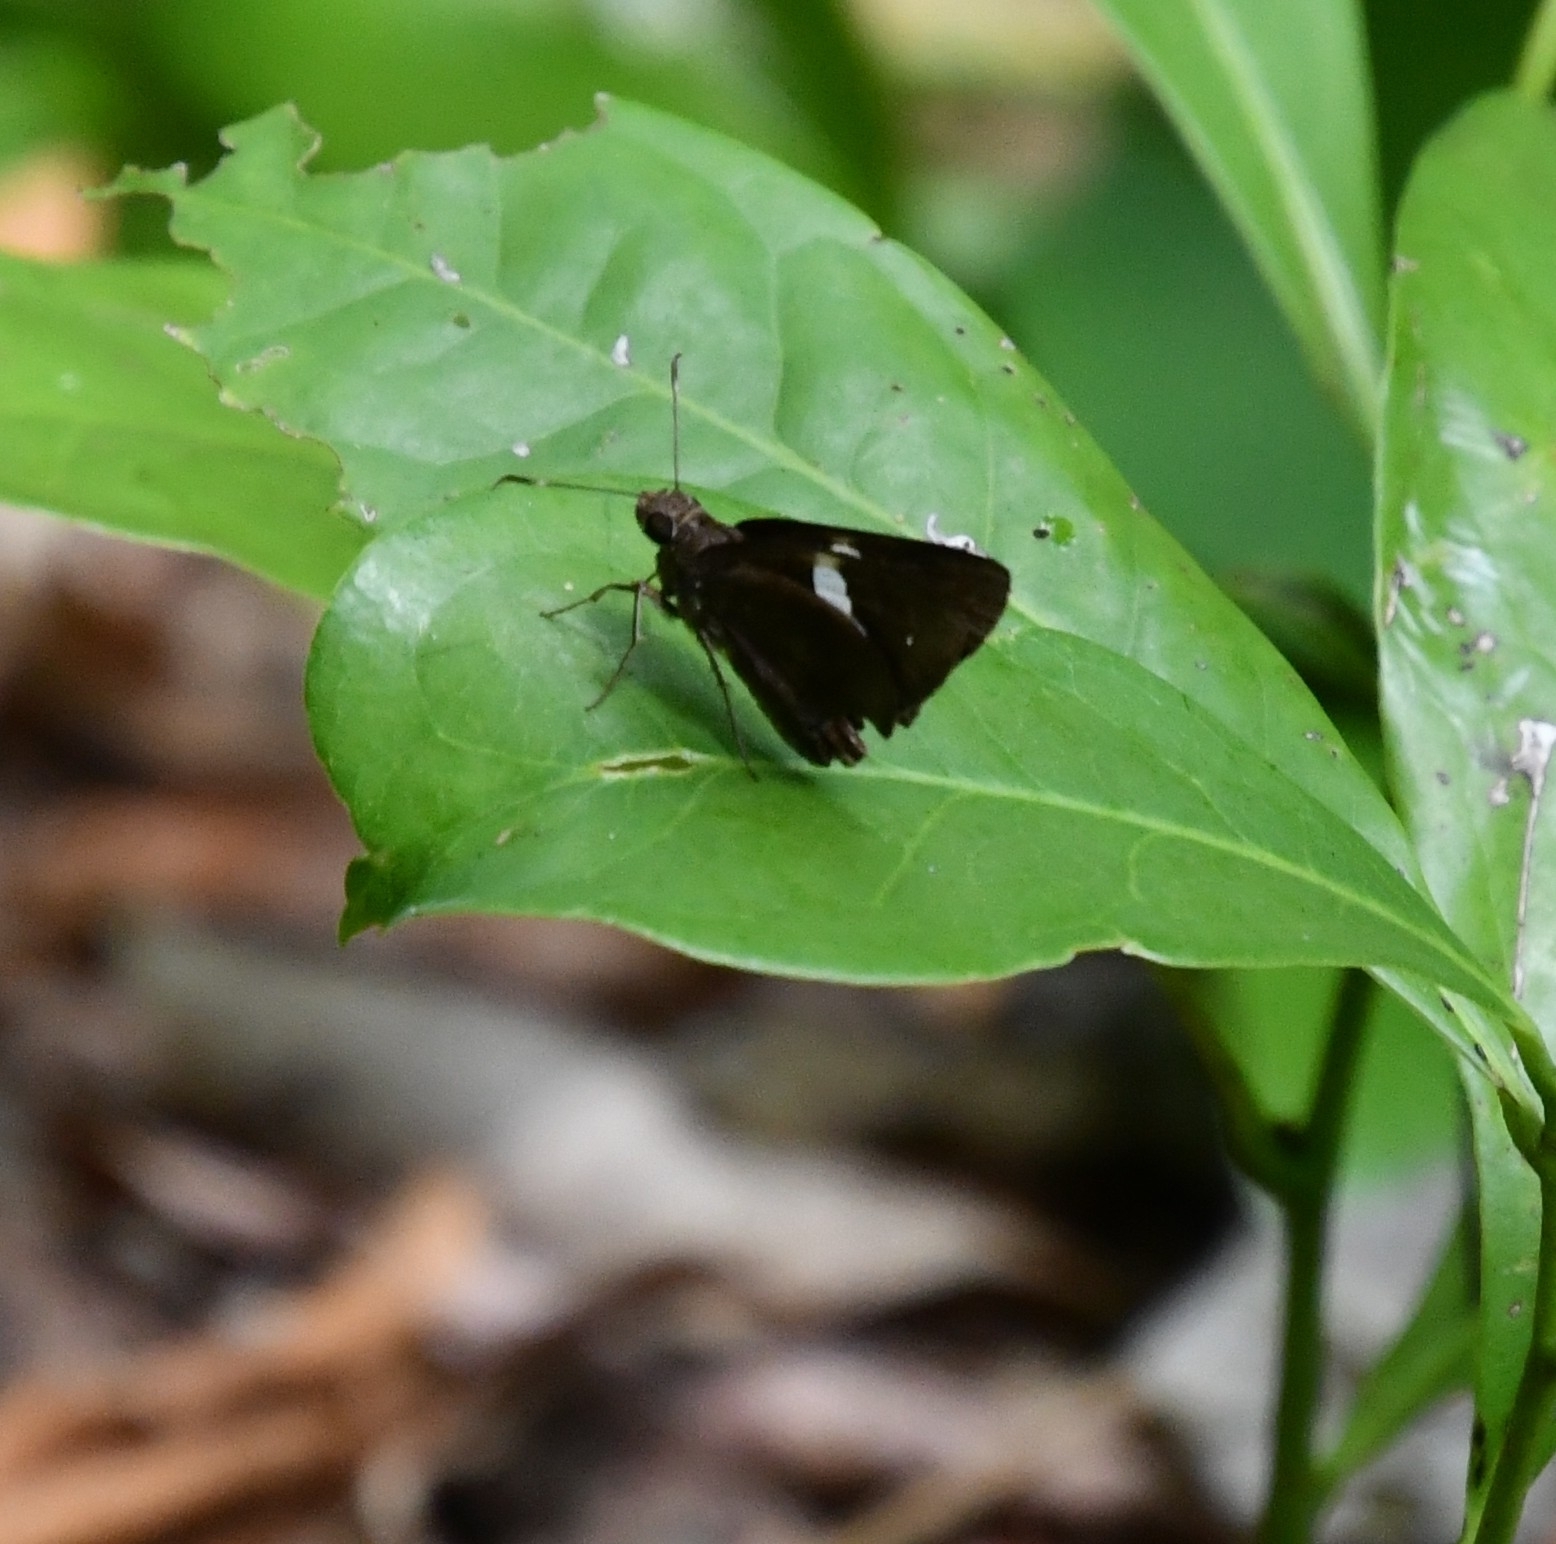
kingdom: Animalia
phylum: Arthropoda
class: Insecta
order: Lepidoptera
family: Hesperiidae
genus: Notocrypta
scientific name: Notocrypta paralysos
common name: Common banded demon
